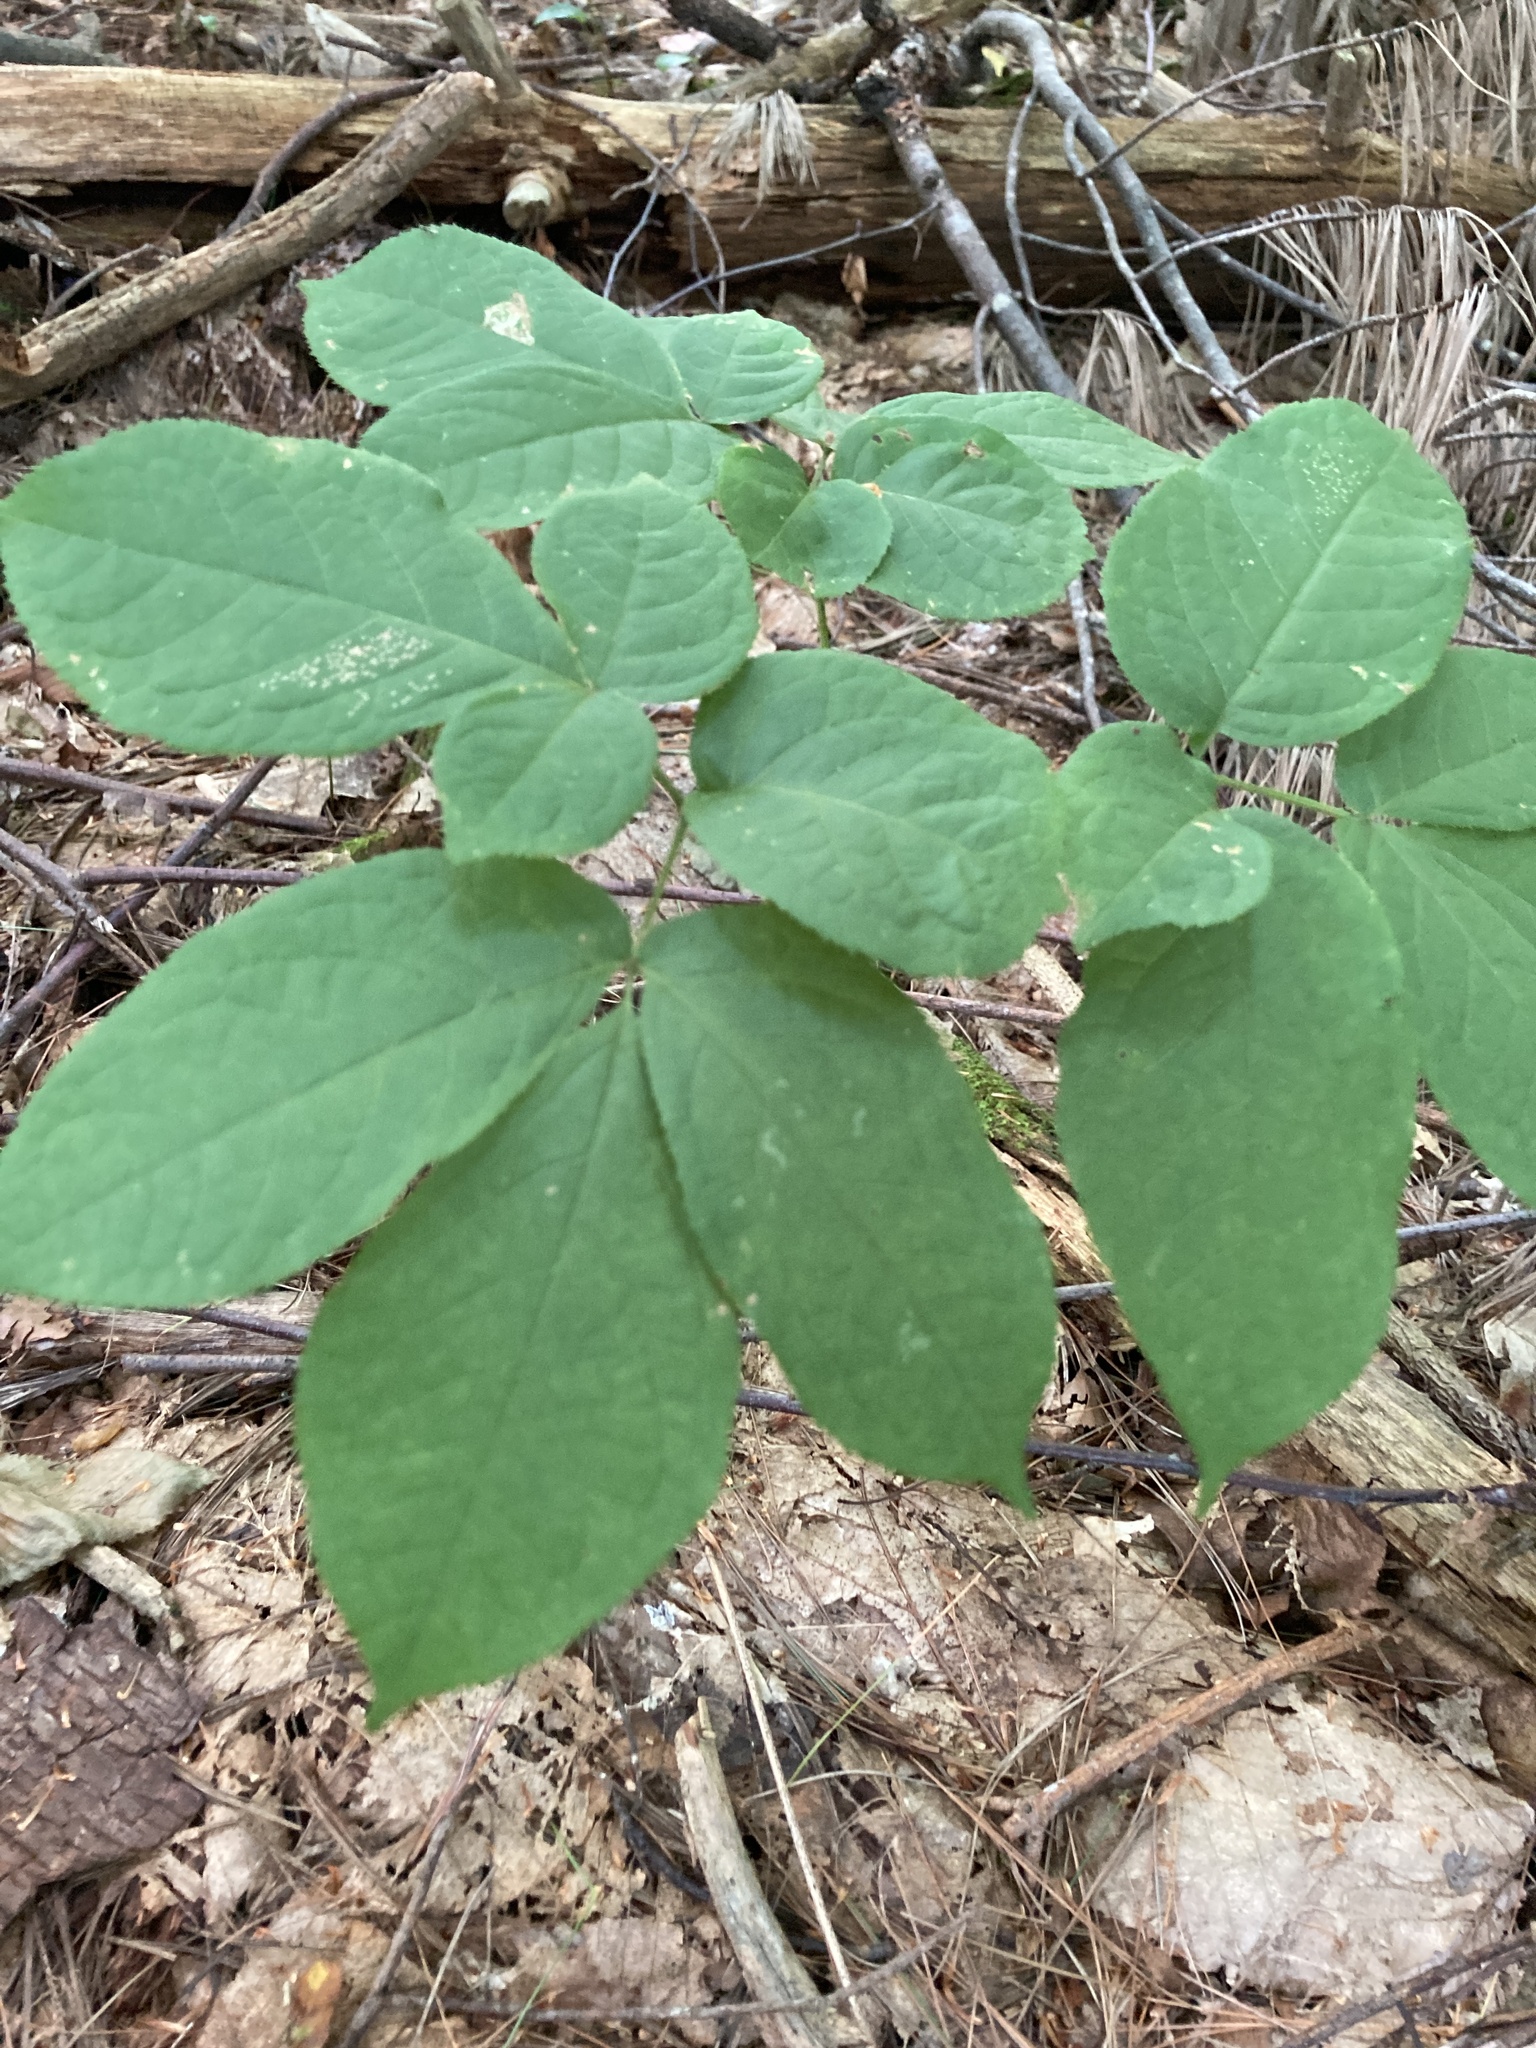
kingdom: Plantae
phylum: Tracheophyta
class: Magnoliopsida
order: Apiales
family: Araliaceae
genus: Aralia
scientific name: Aralia nudicaulis
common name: Wild sarsaparilla
